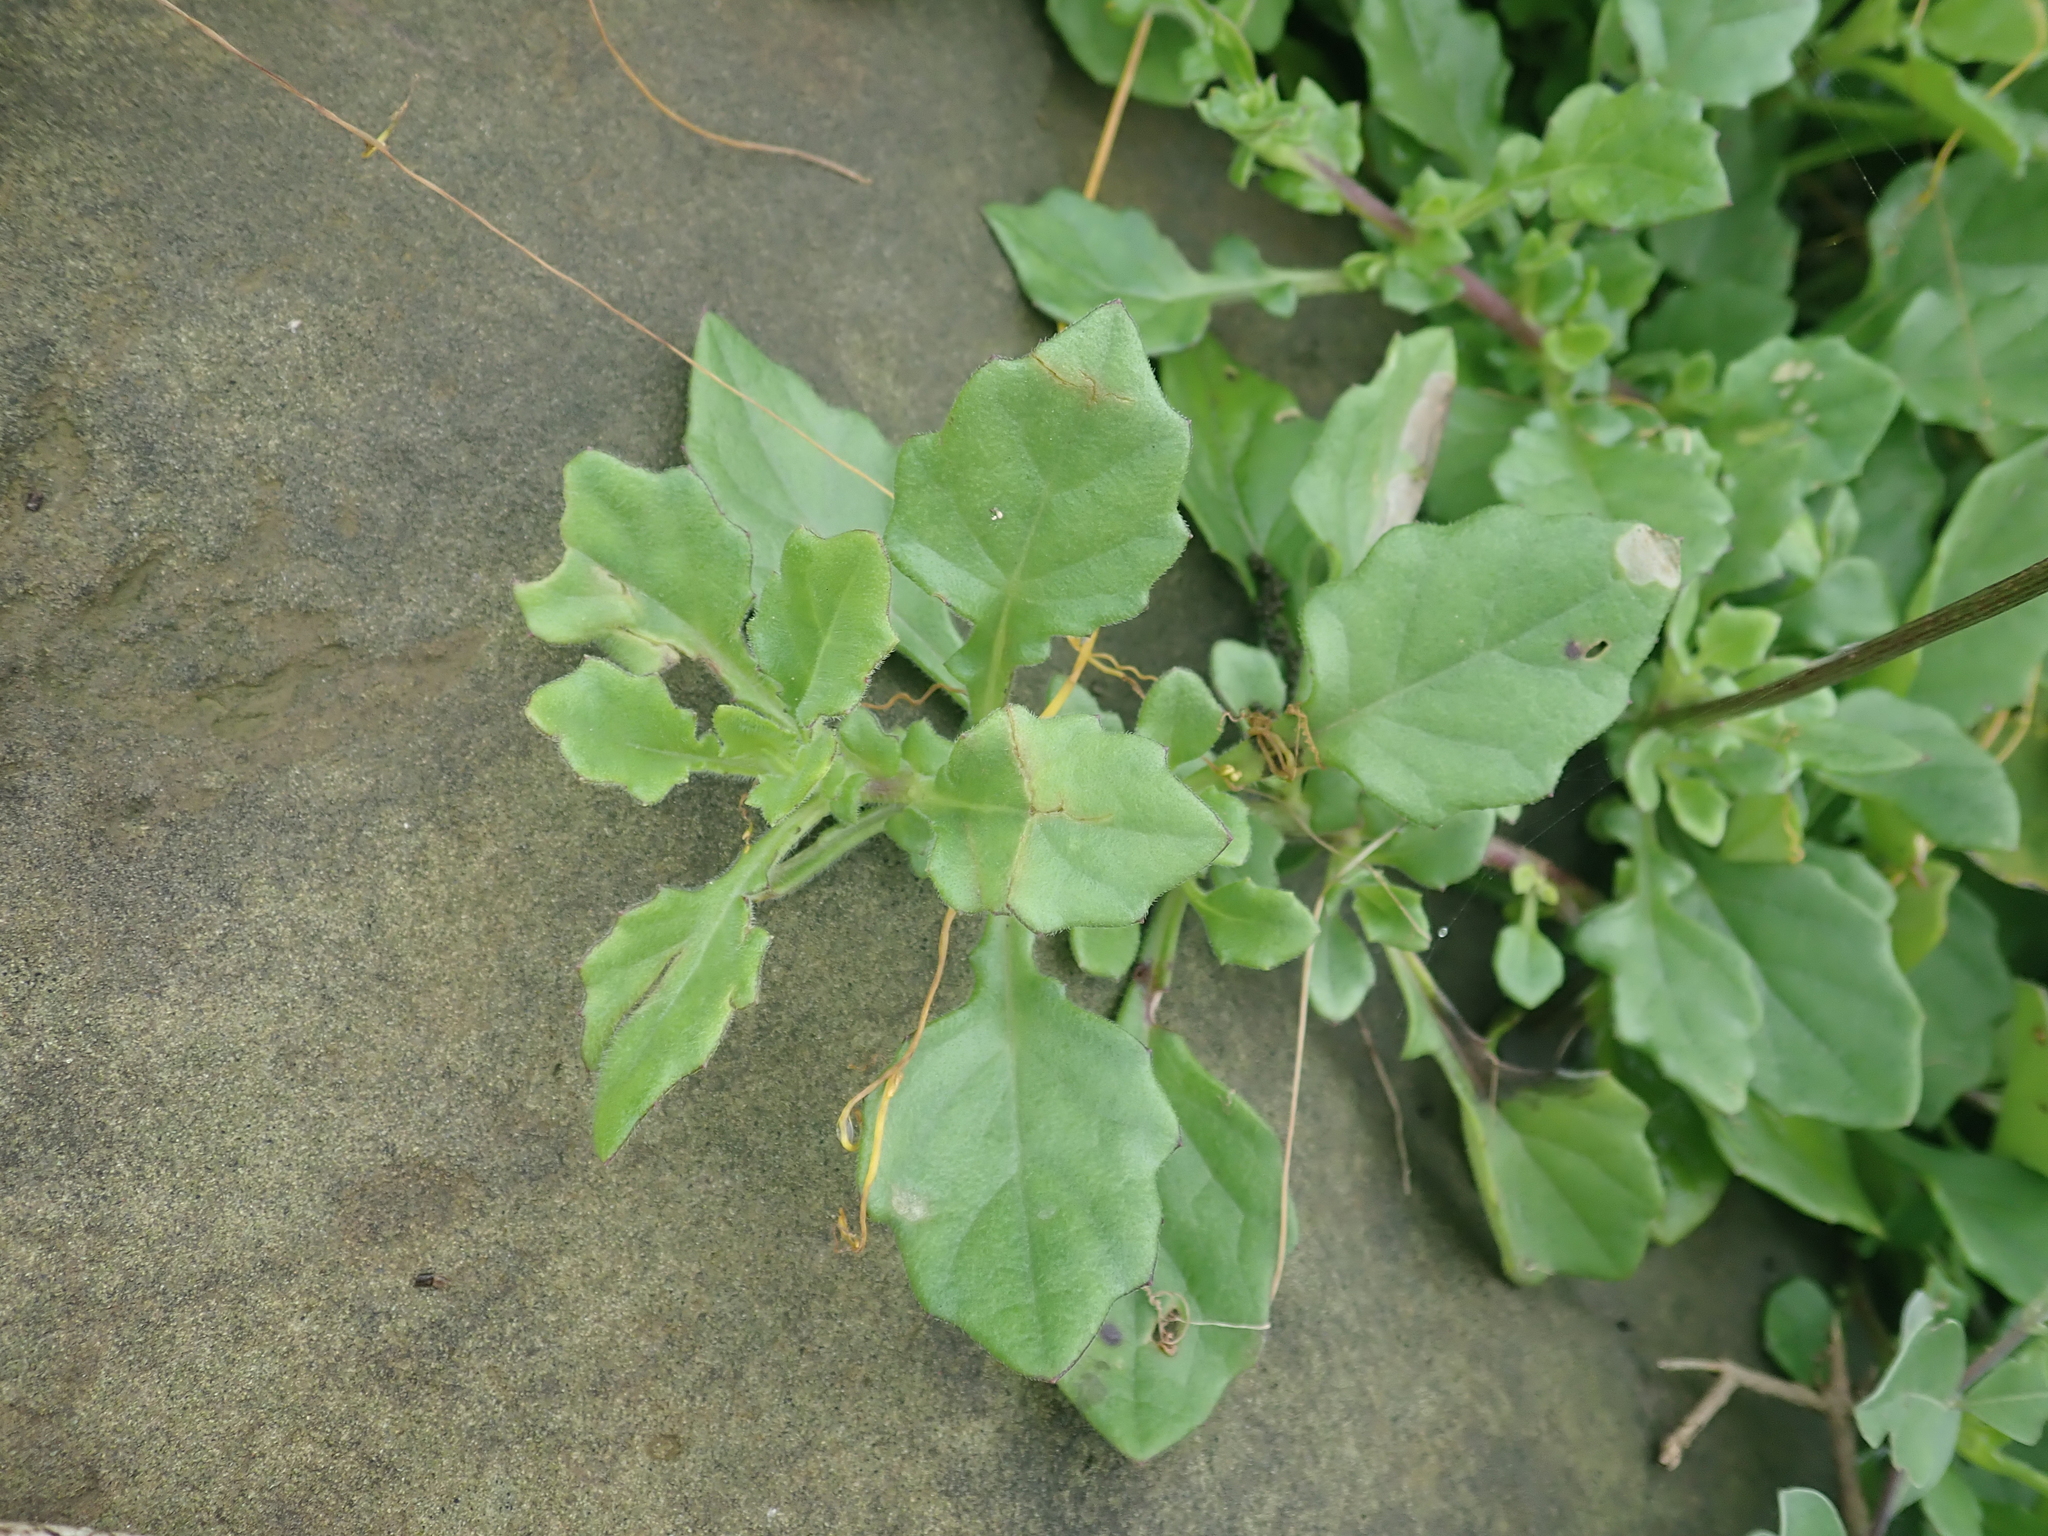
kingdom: Plantae
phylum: Tracheophyta
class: Magnoliopsida
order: Asterales
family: Asteraceae
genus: Gynura
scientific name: Gynura formosana
